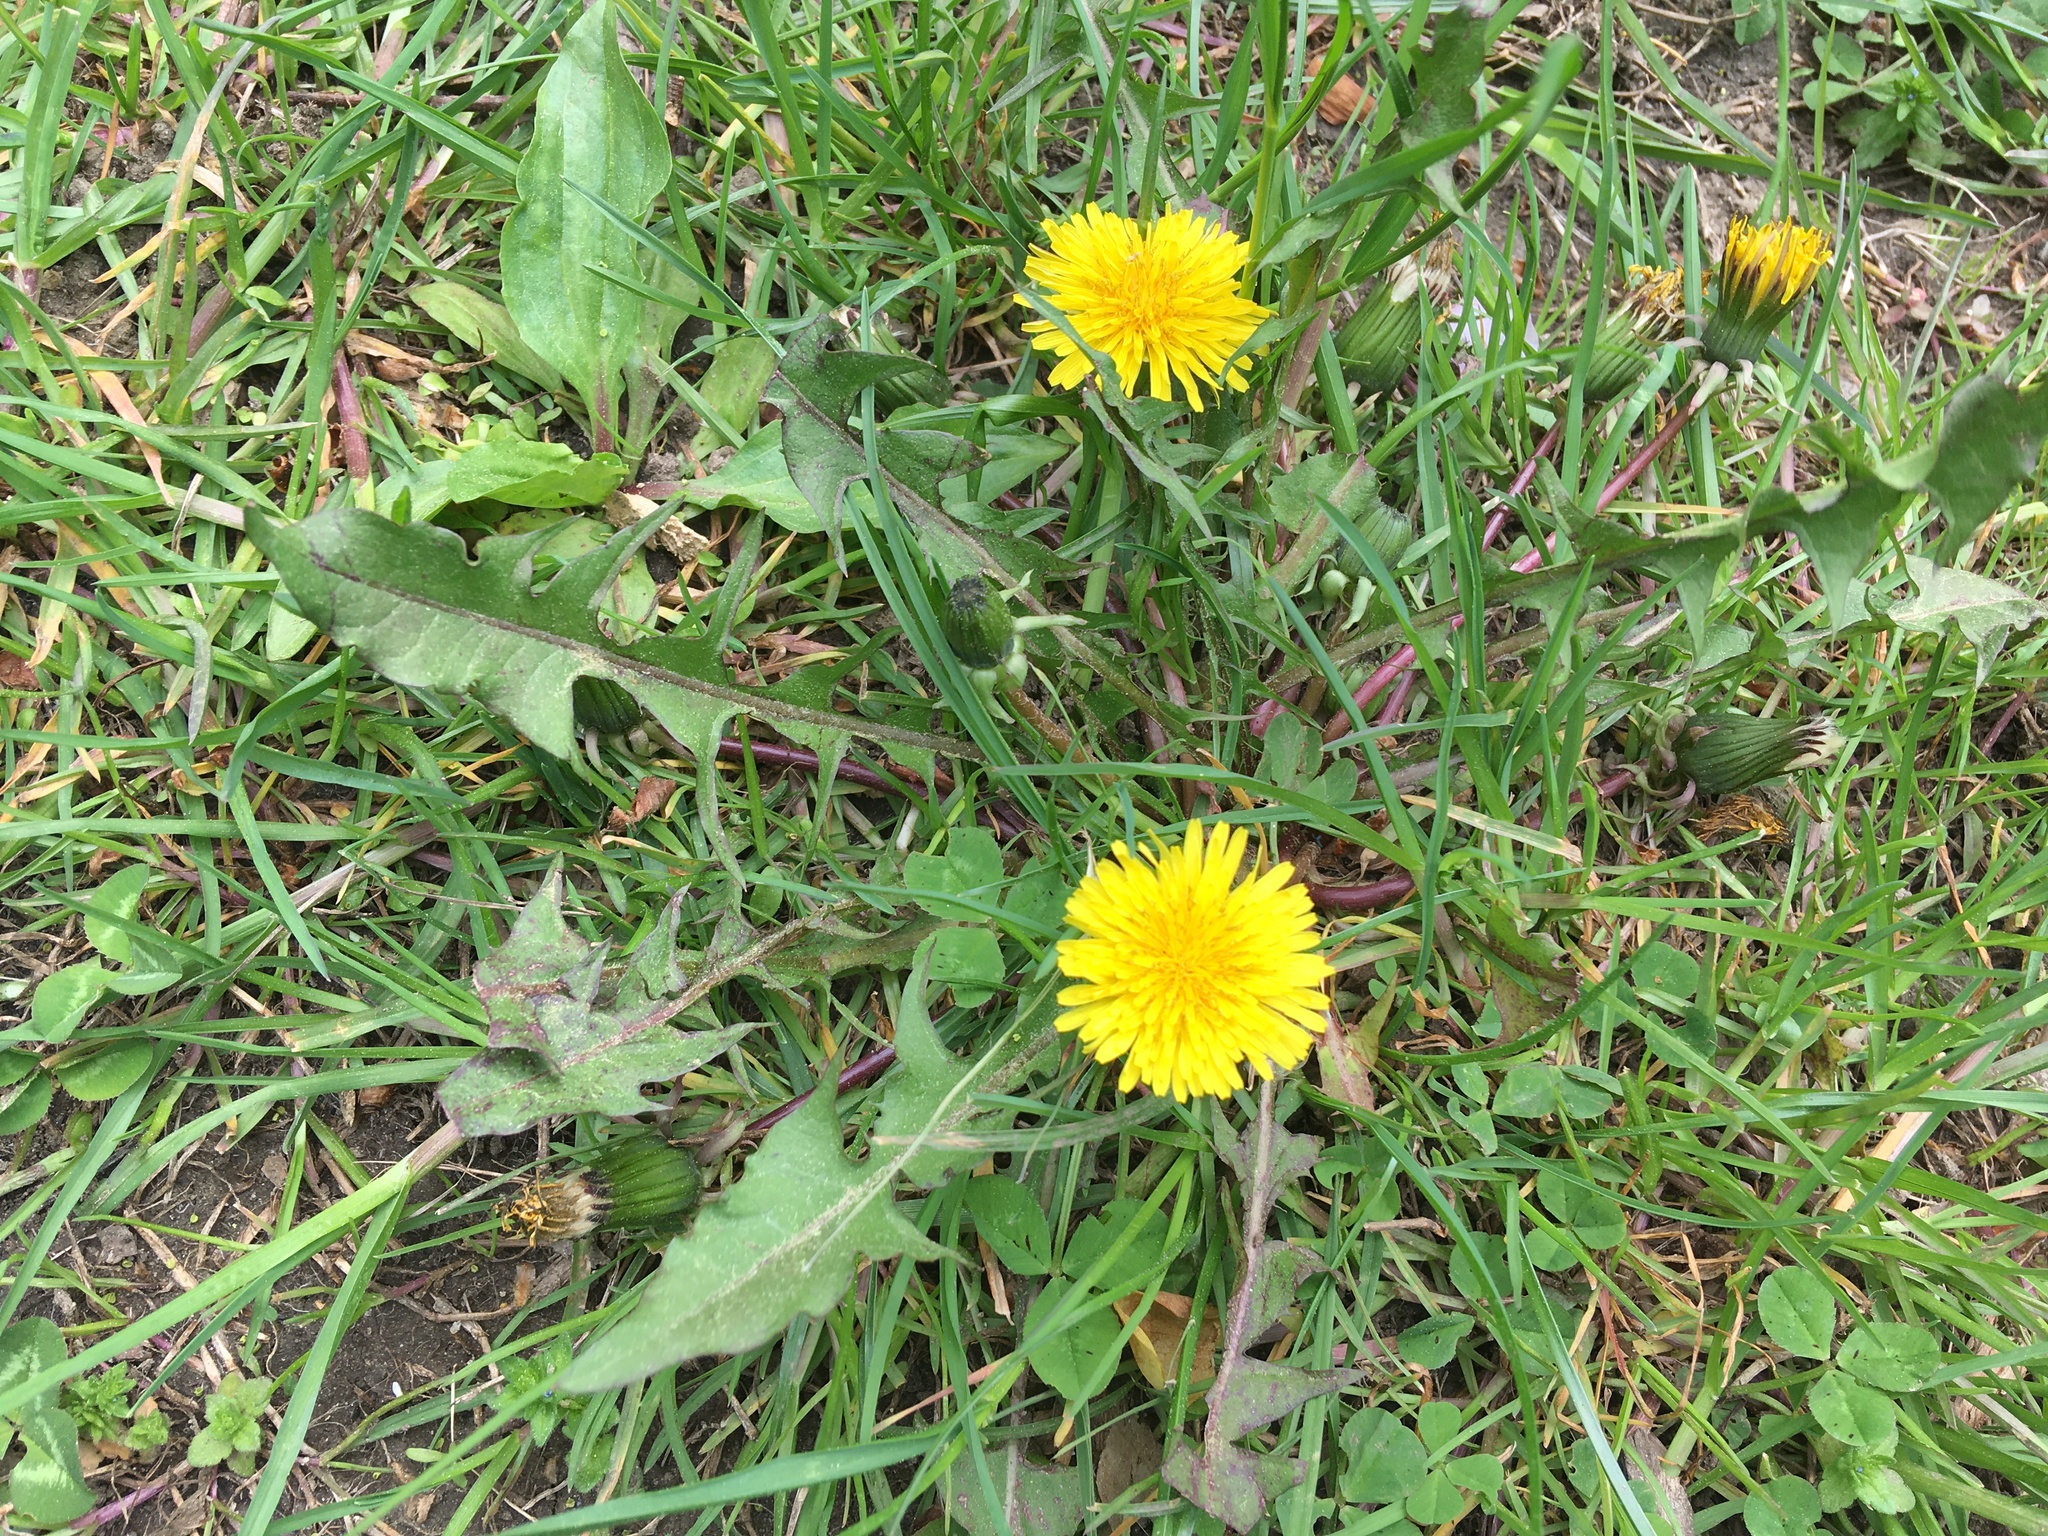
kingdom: Plantae
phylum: Tracheophyta
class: Magnoliopsida
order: Asterales
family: Asteraceae
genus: Taraxacum
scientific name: Taraxacum
